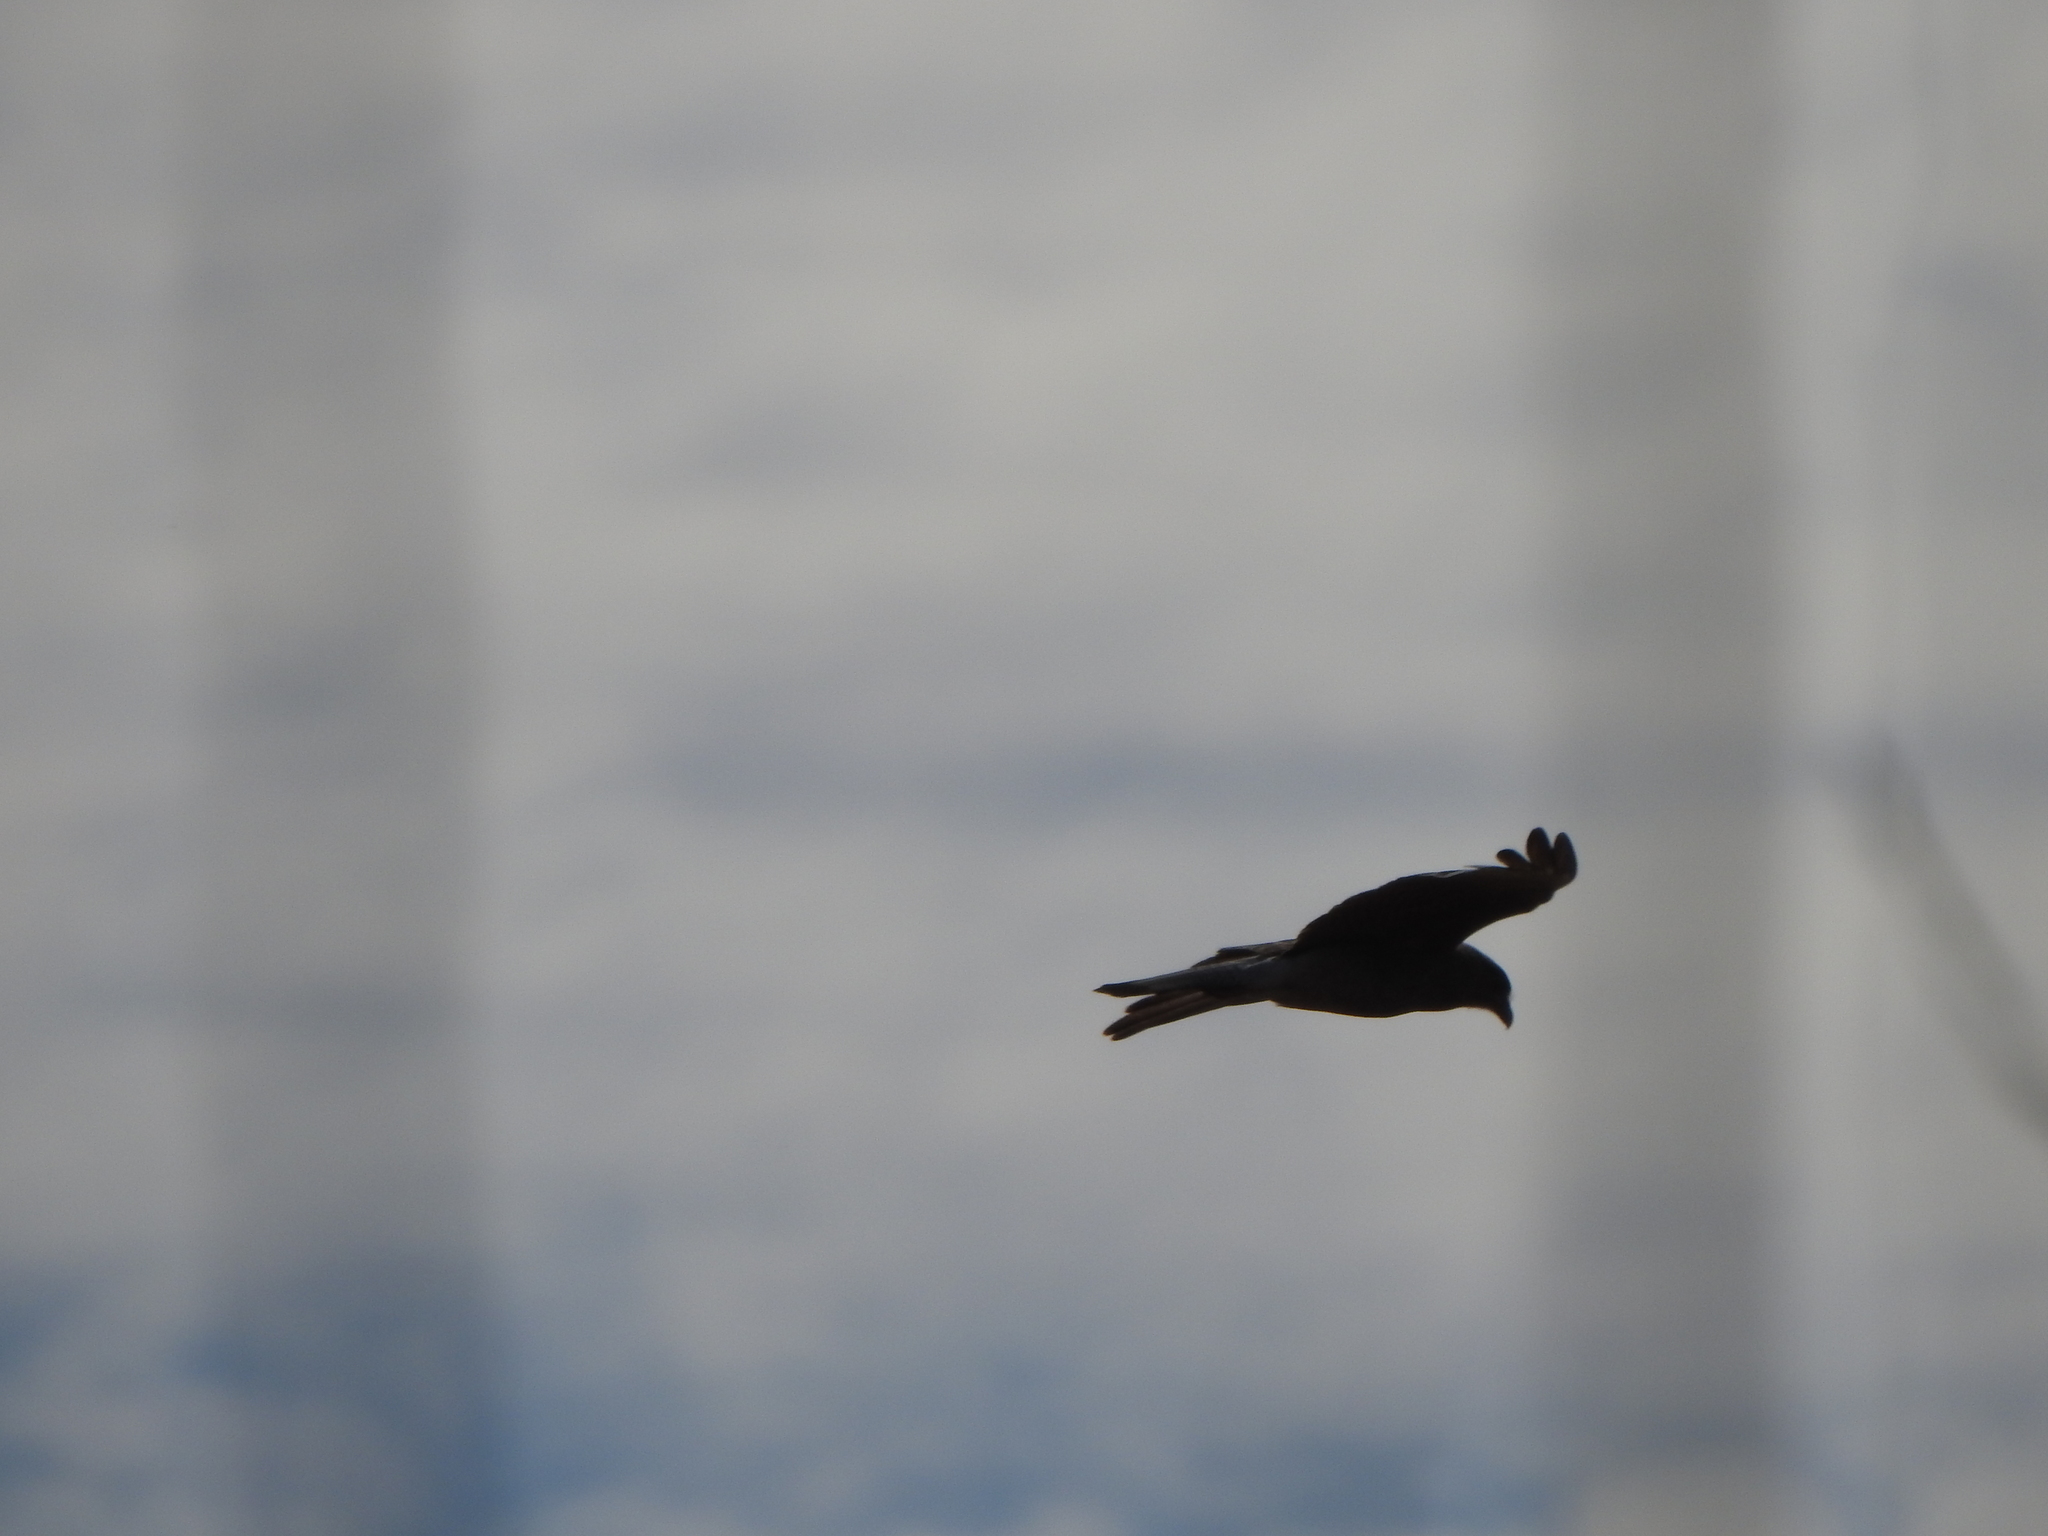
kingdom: Animalia
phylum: Chordata
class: Aves
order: Falconiformes
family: Falconidae
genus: Daptrius
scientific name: Daptrius
